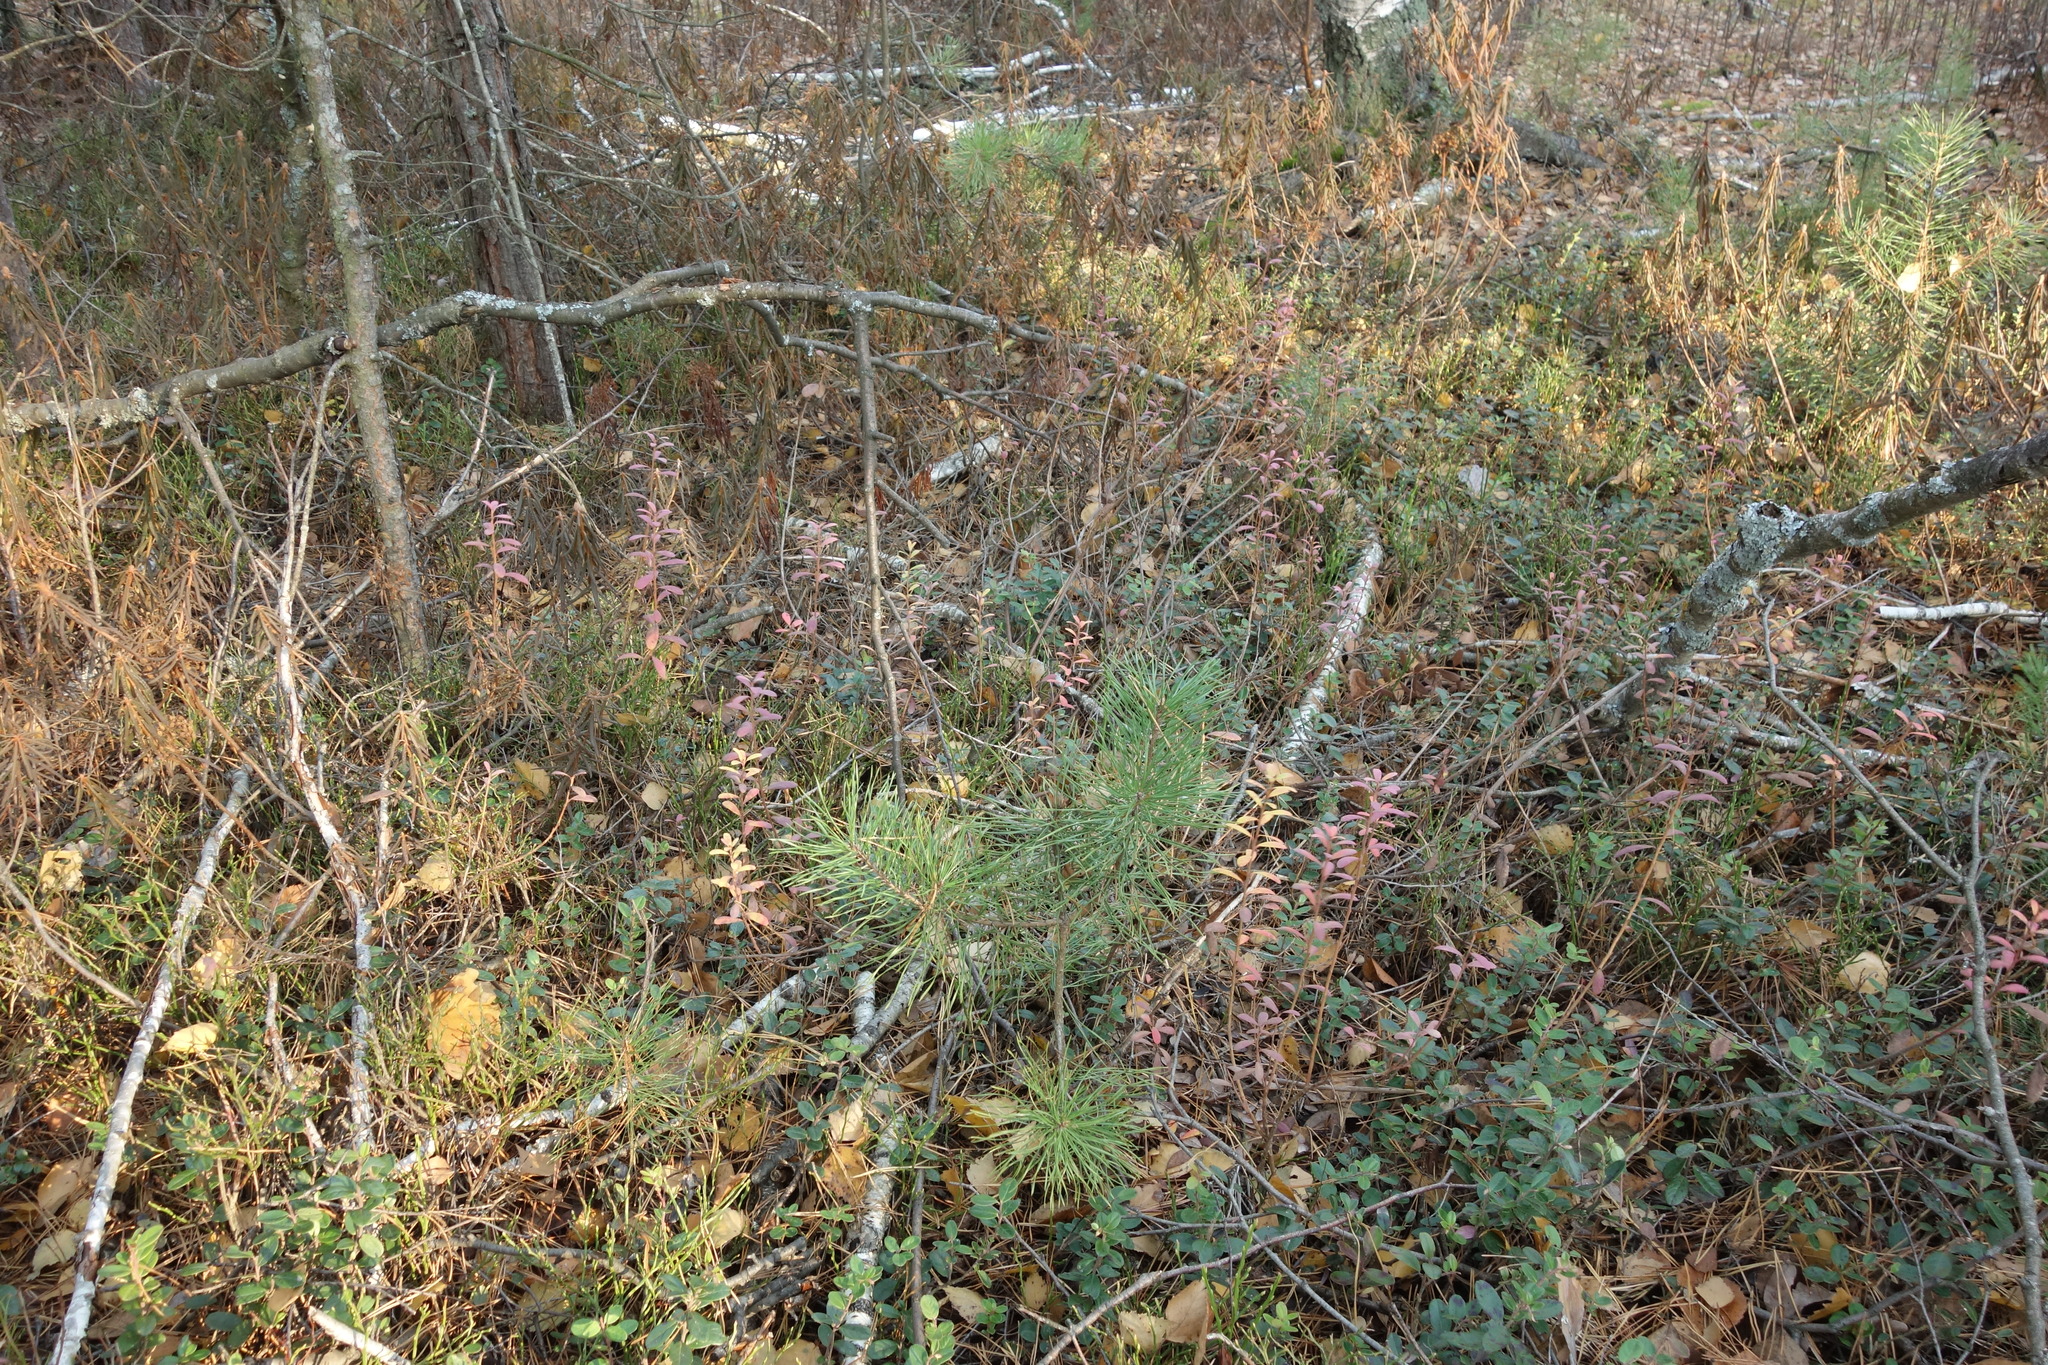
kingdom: Plantae
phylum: Tracheophyta
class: Magnoliopsida
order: Ericales
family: Ericaceae
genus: Vaccinium
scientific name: Vaccinium uliginosum
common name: Bog bilberry
